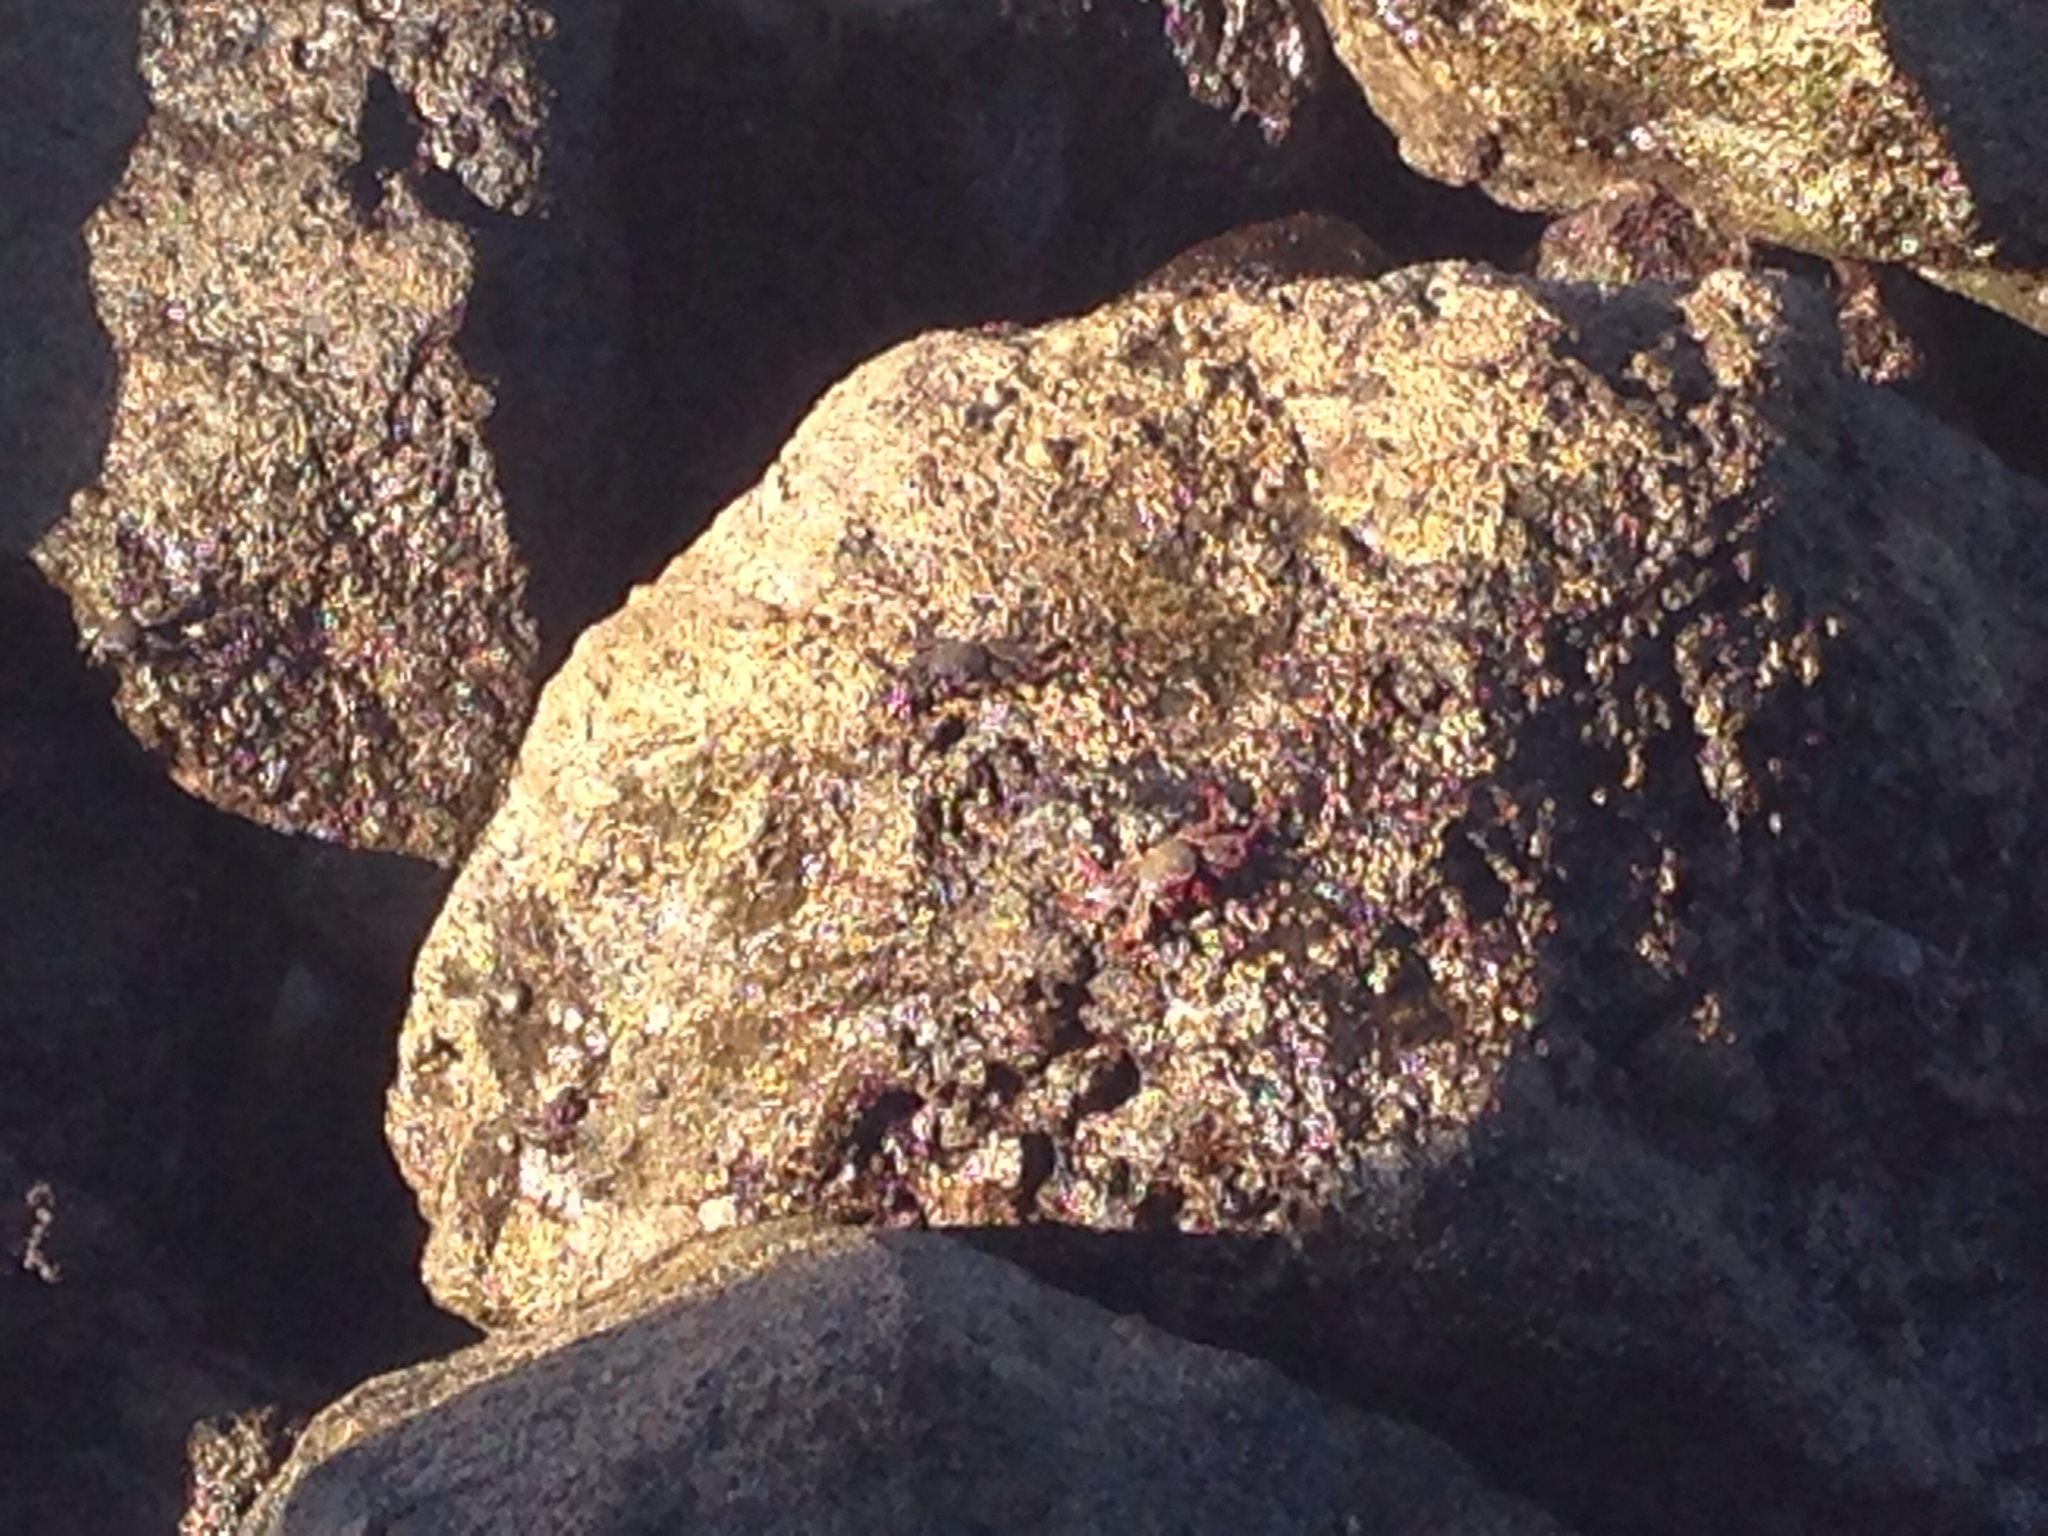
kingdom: Animalia
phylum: Arthropoda
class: Malacostraca
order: Decapoda
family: Grapsidae
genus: Grapsus
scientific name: Grapsus adscensionis
